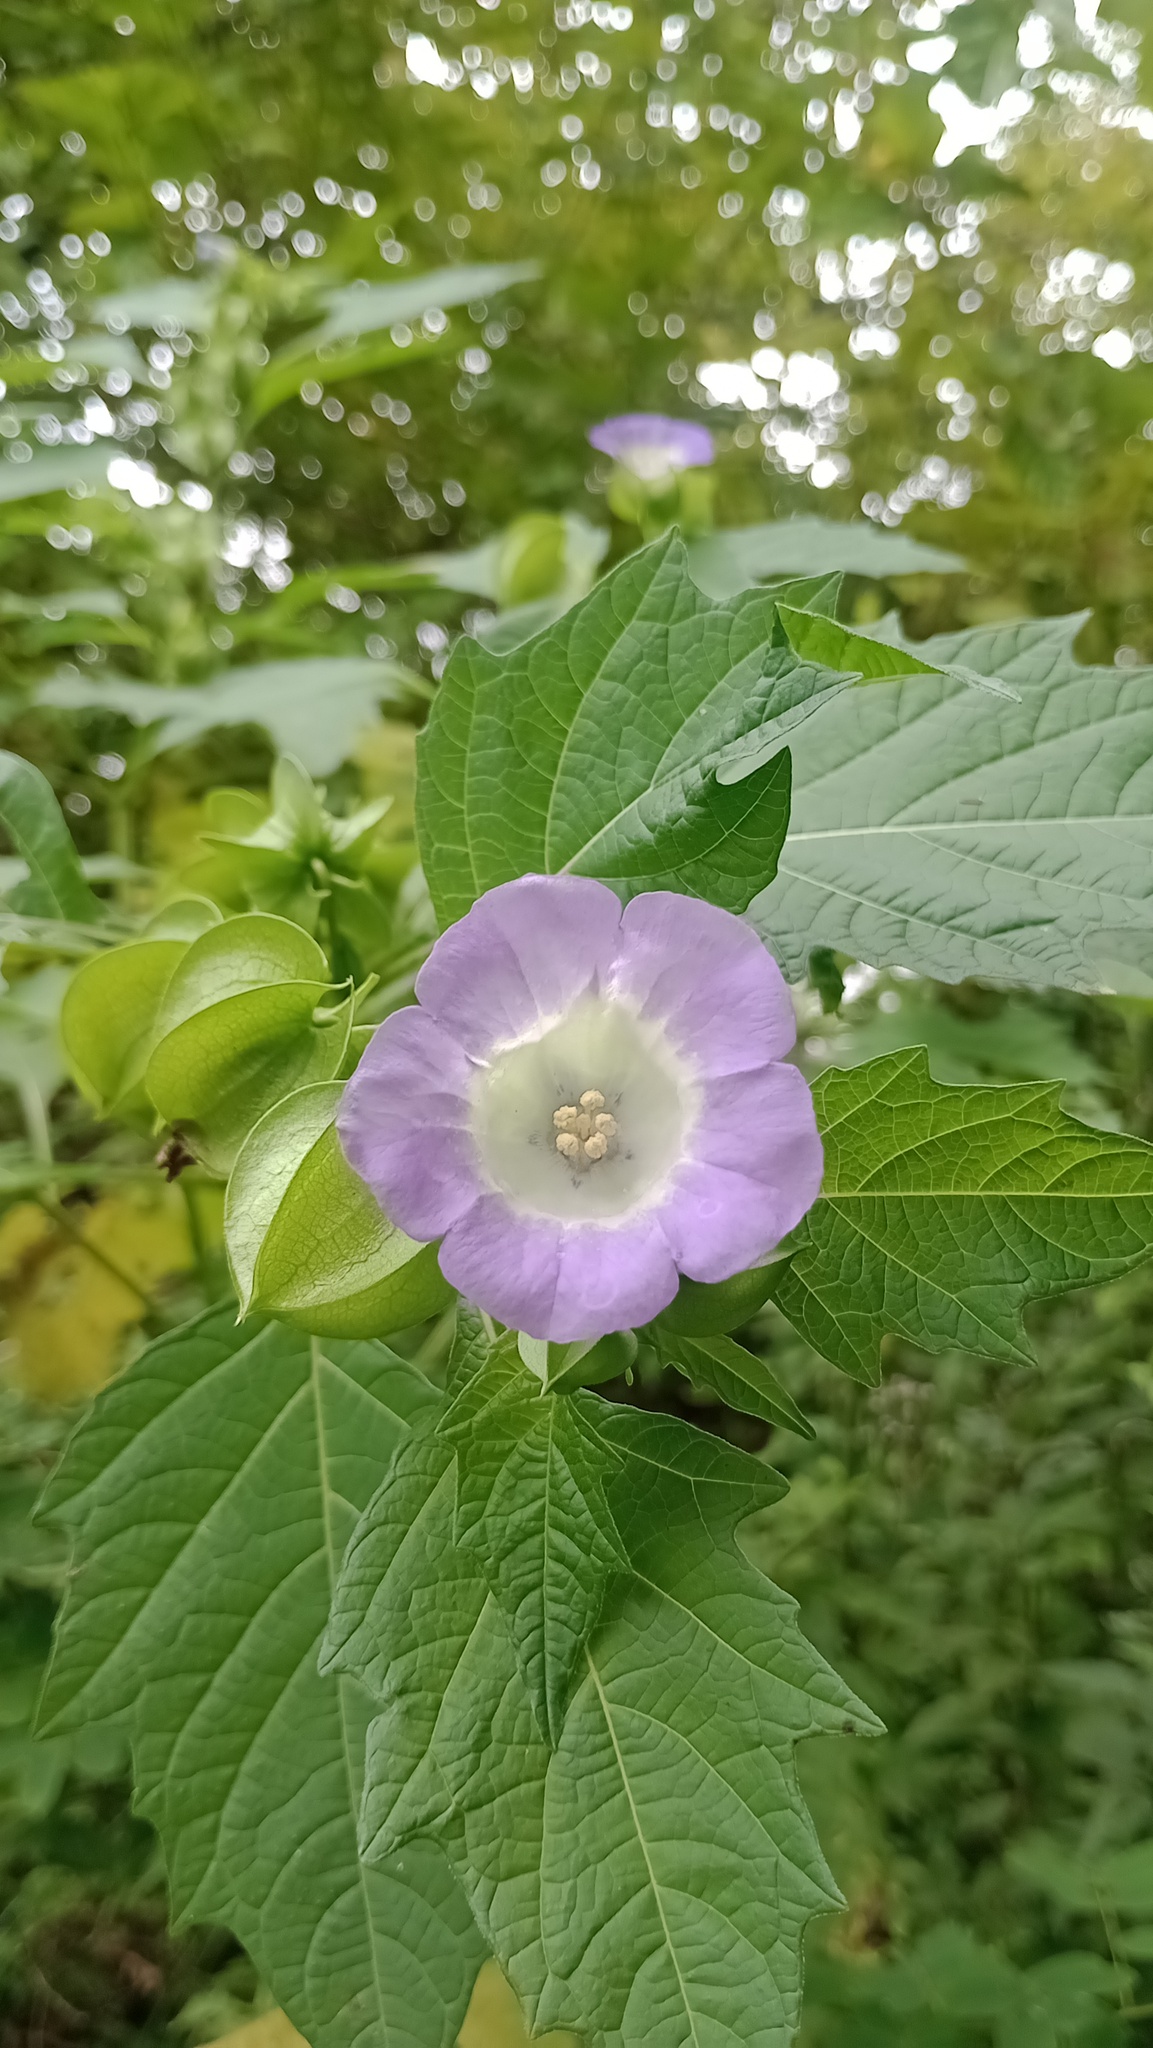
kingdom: Plantae
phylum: Tracheophyta
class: Magnoliopsida
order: Solanales
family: Solanaceae
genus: Nicandra
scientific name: Nicandra physalodes
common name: Apple-of-peru
